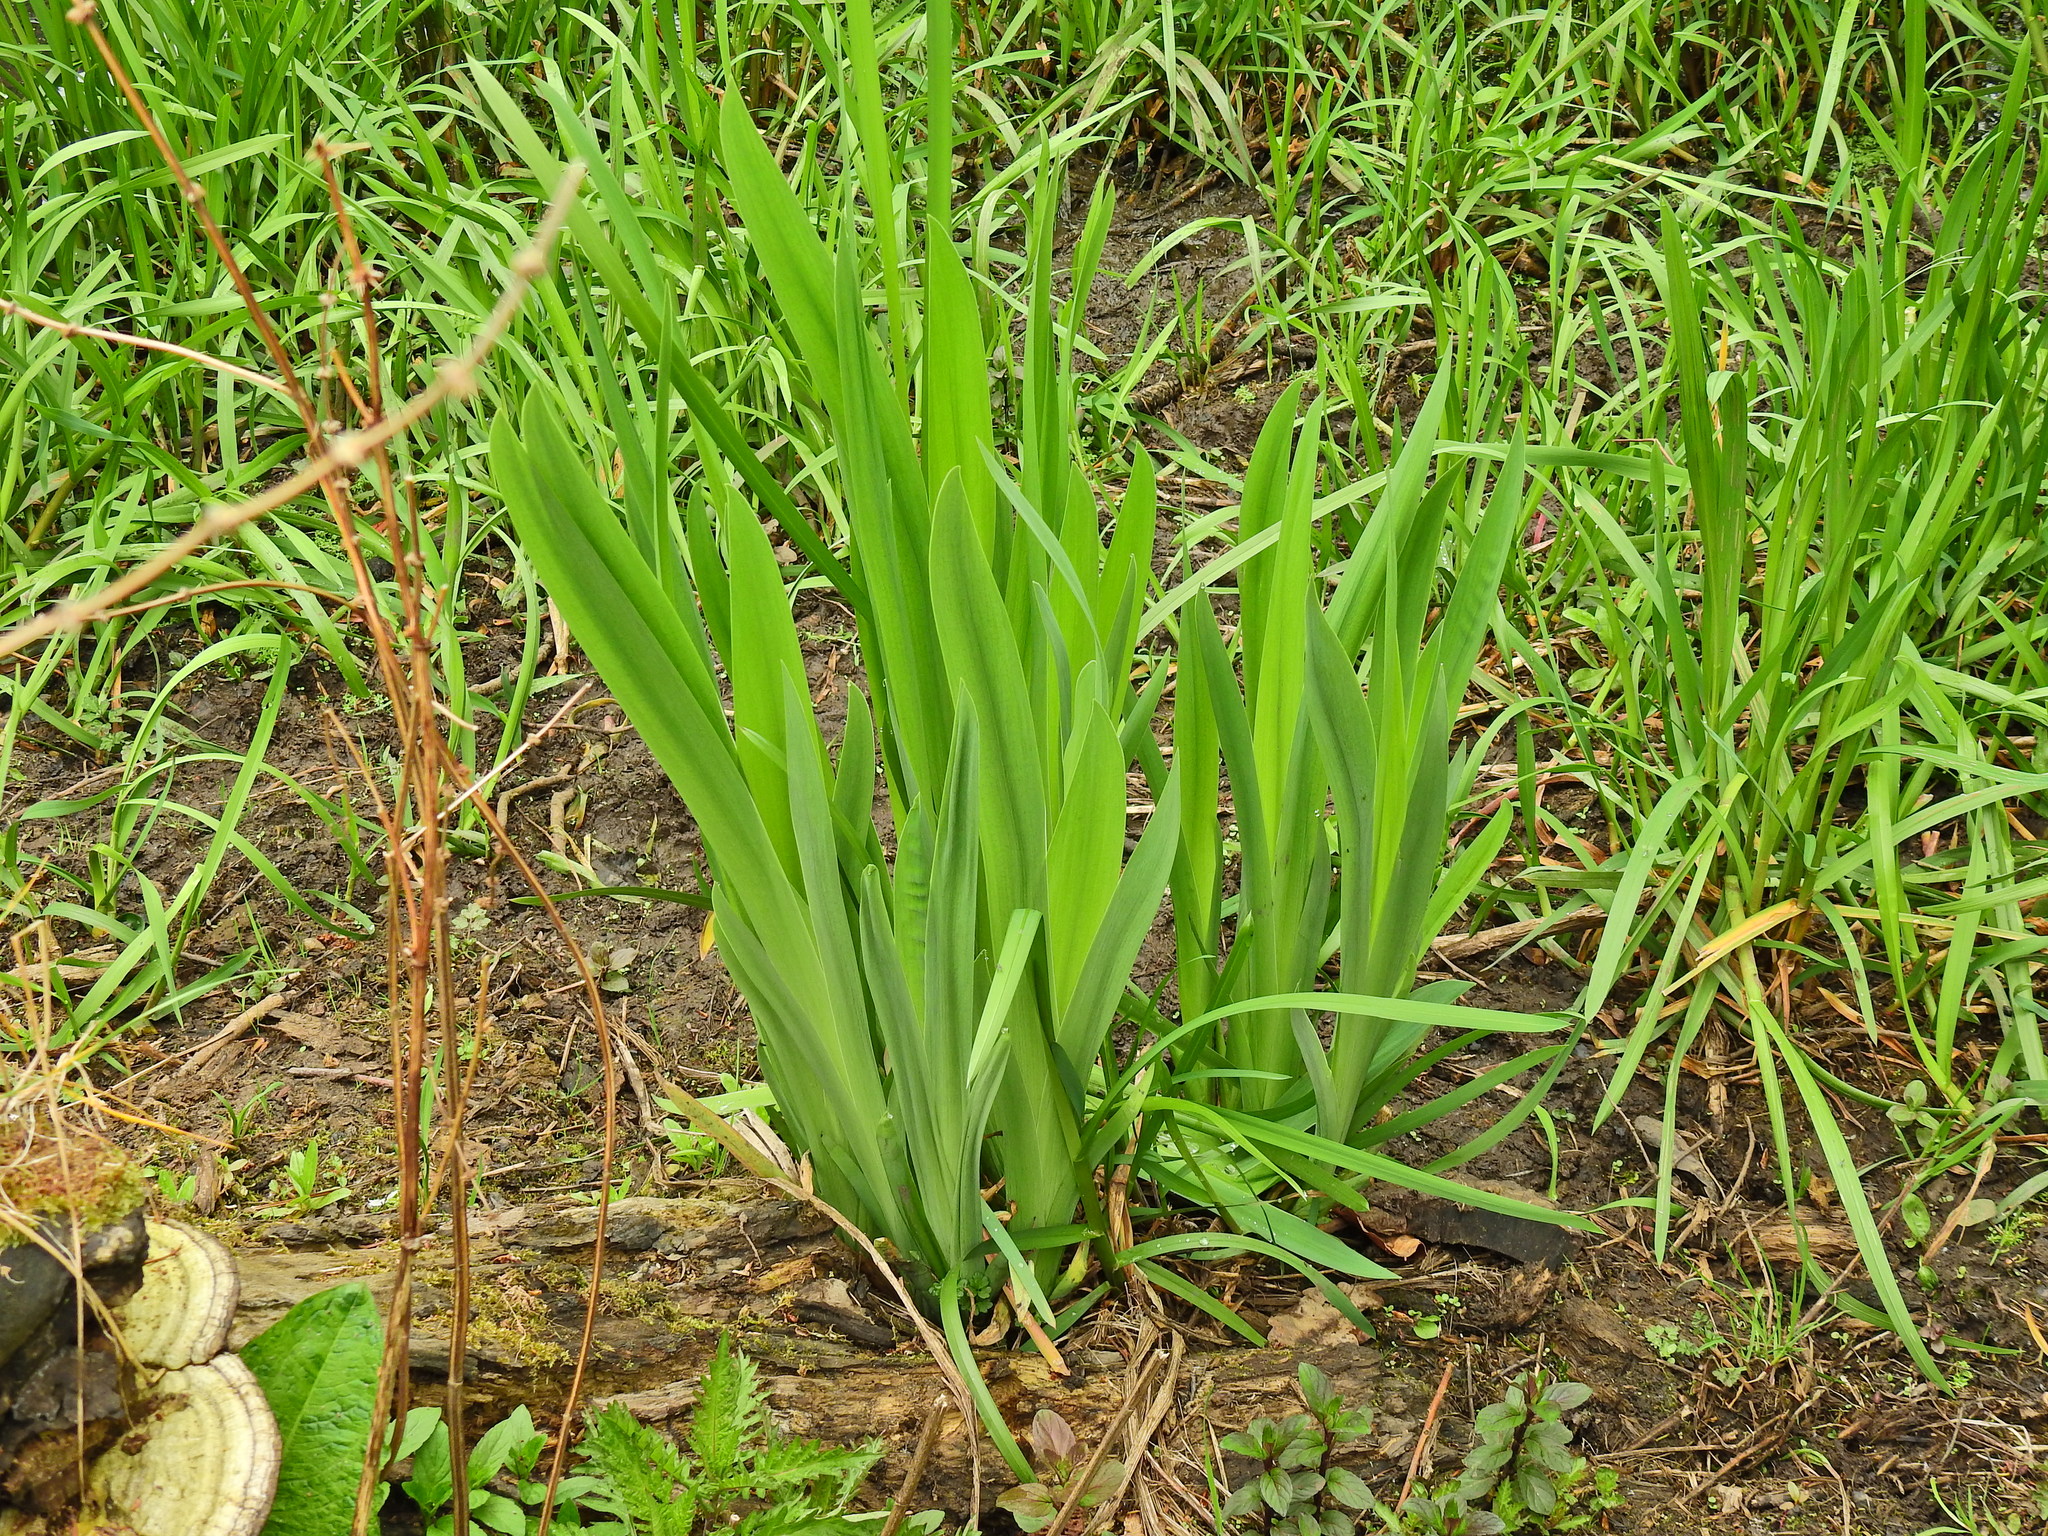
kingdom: Plantae
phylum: Tracheophyta
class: Liliopsida
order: Asparagales
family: Iridaceae
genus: Iris
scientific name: Iris pseudacorus
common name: Yellow flag
